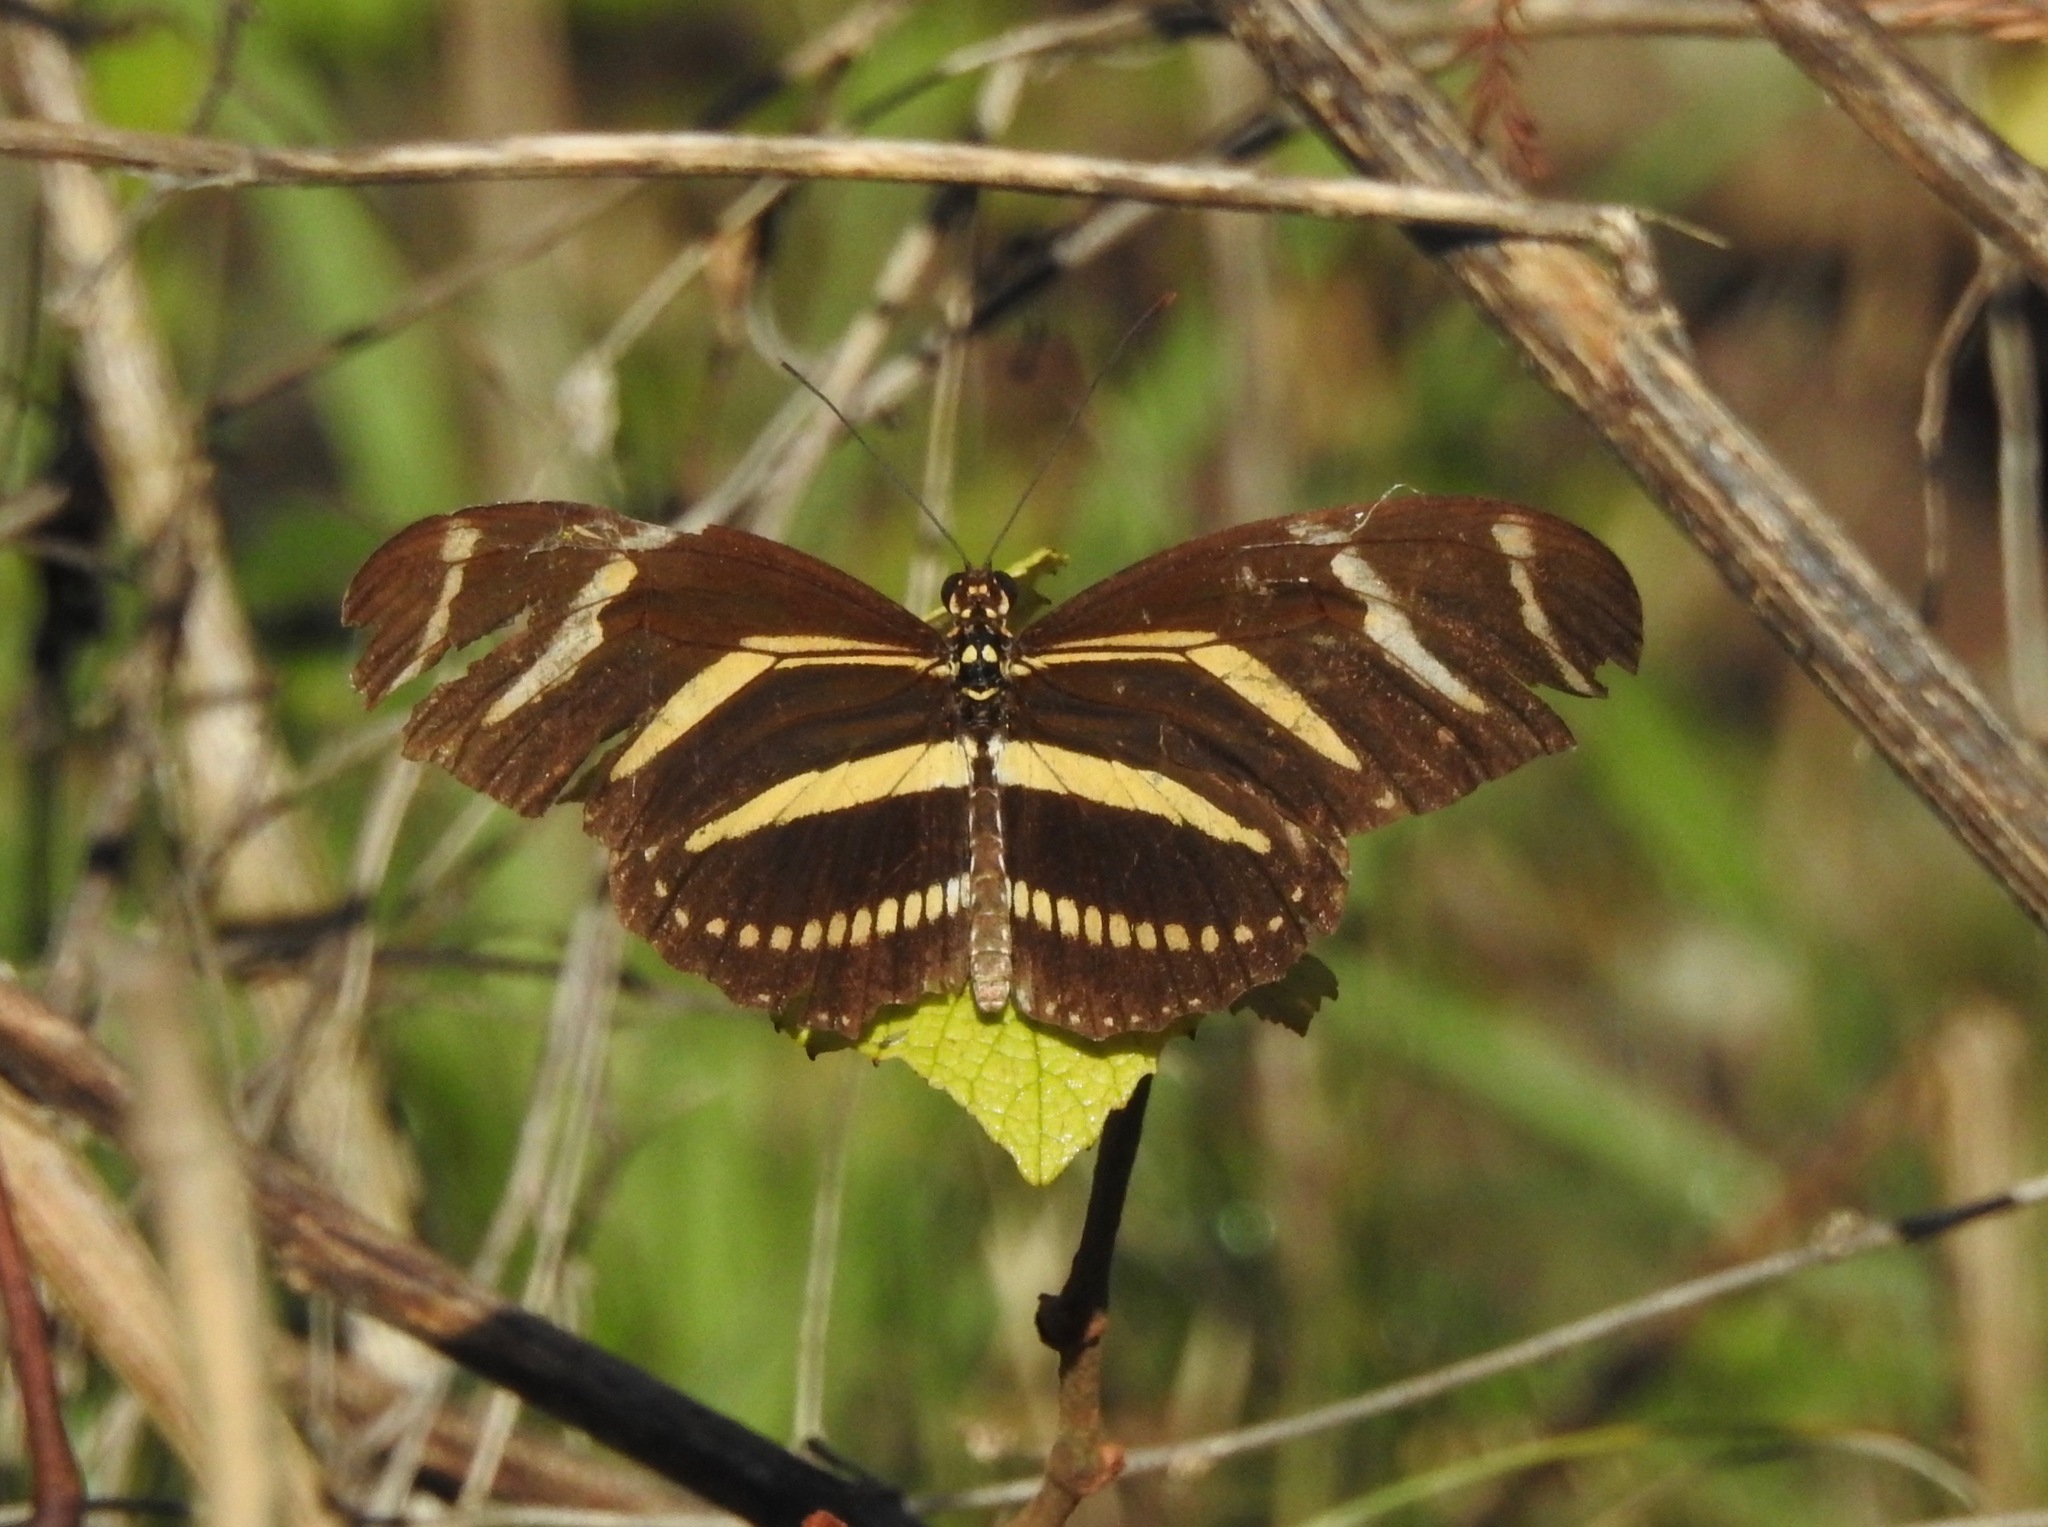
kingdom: Animalia
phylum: Arthropoda
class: Insecta
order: Lepidoptera
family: Nymphalidae
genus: Heliconius
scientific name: Heliconius charithonia
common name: Zebra long wing
